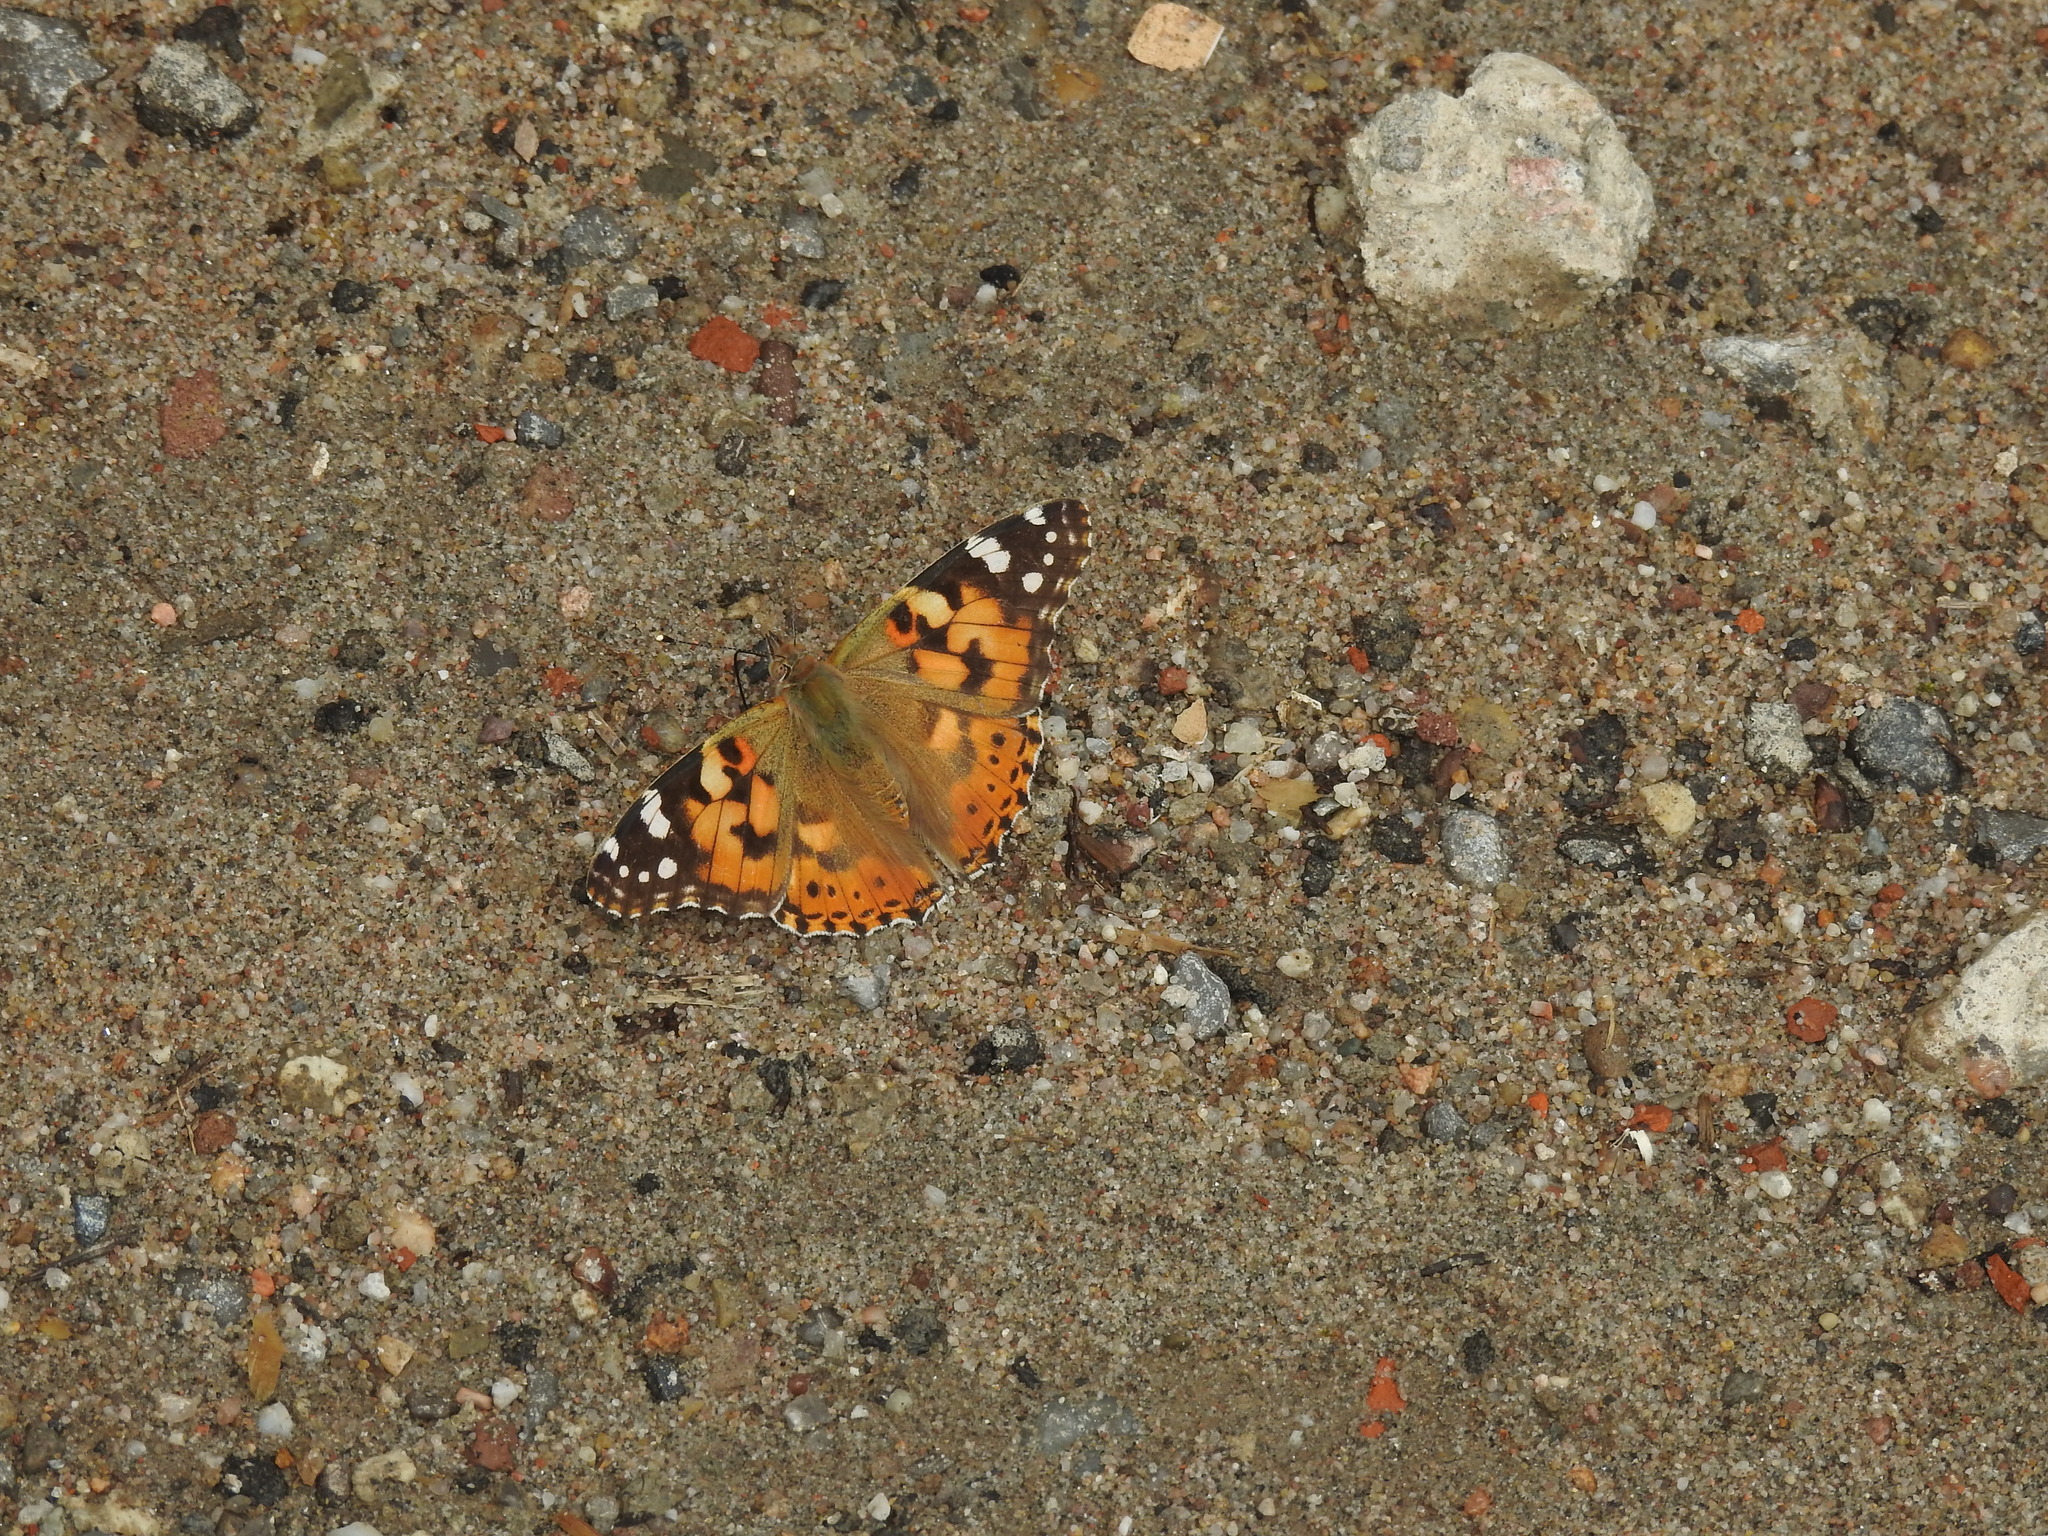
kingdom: Animalia
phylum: Arthropoda
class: Insecta
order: Lepidoptera
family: Nymphalidae
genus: Vanessa
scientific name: Vanessa cardui
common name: Painted lady
